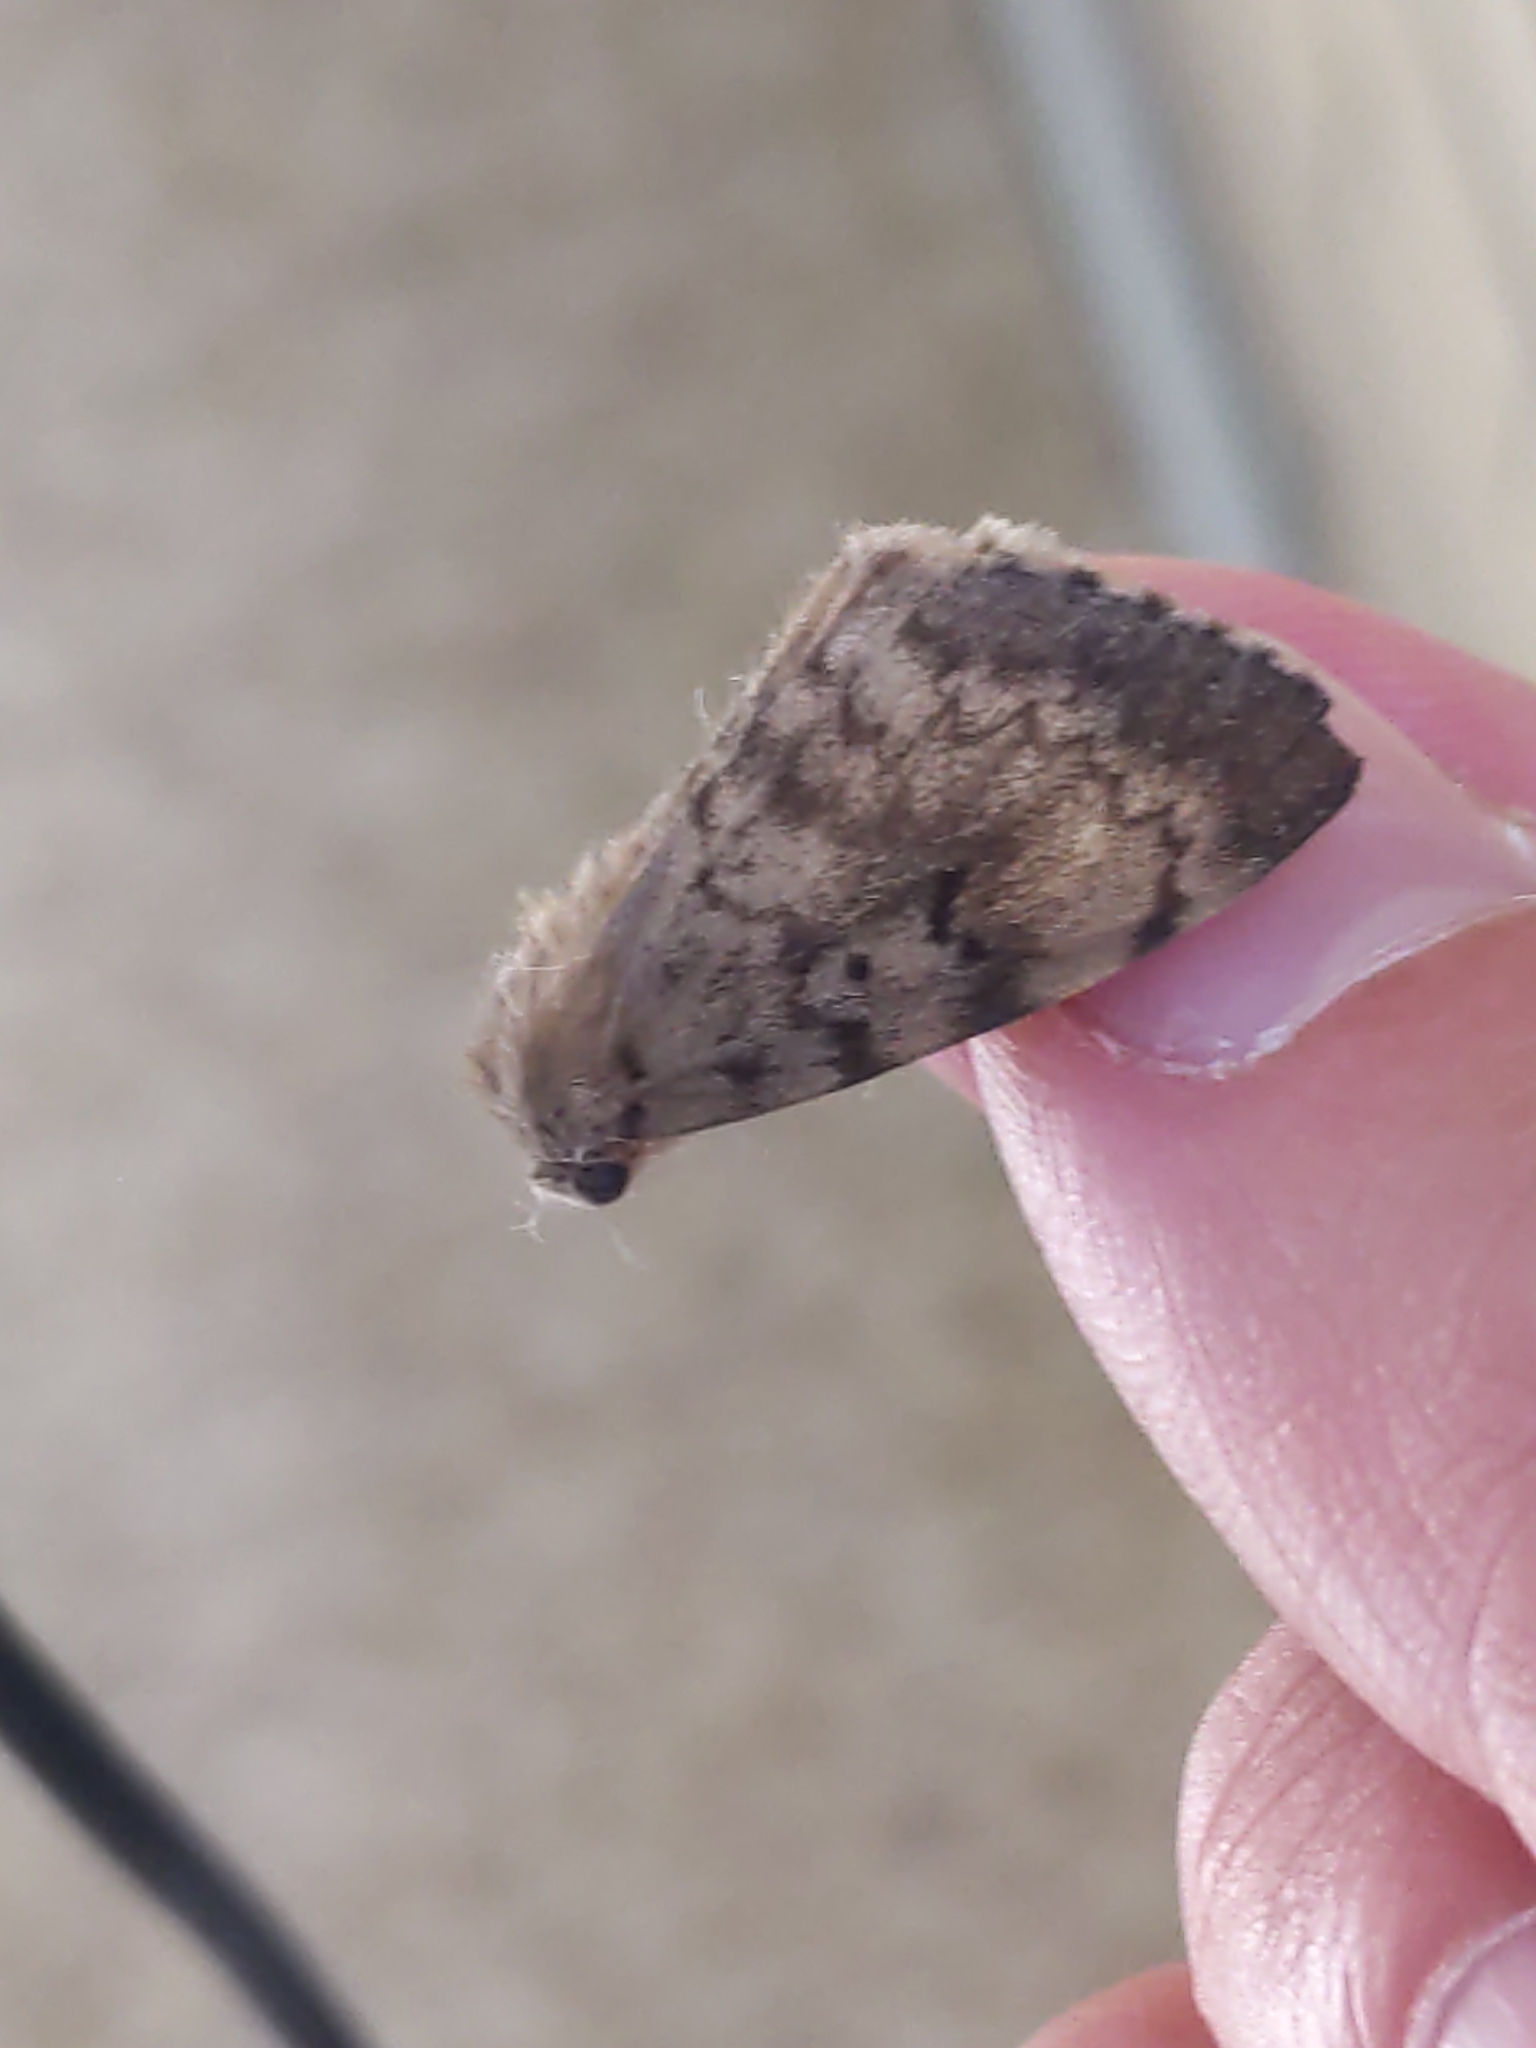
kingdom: Animalia
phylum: Arthropoda
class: Insecta
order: Lepidoptera
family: Erebidae
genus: Lymantria
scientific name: Lymantria dispar
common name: Gypsy moth
